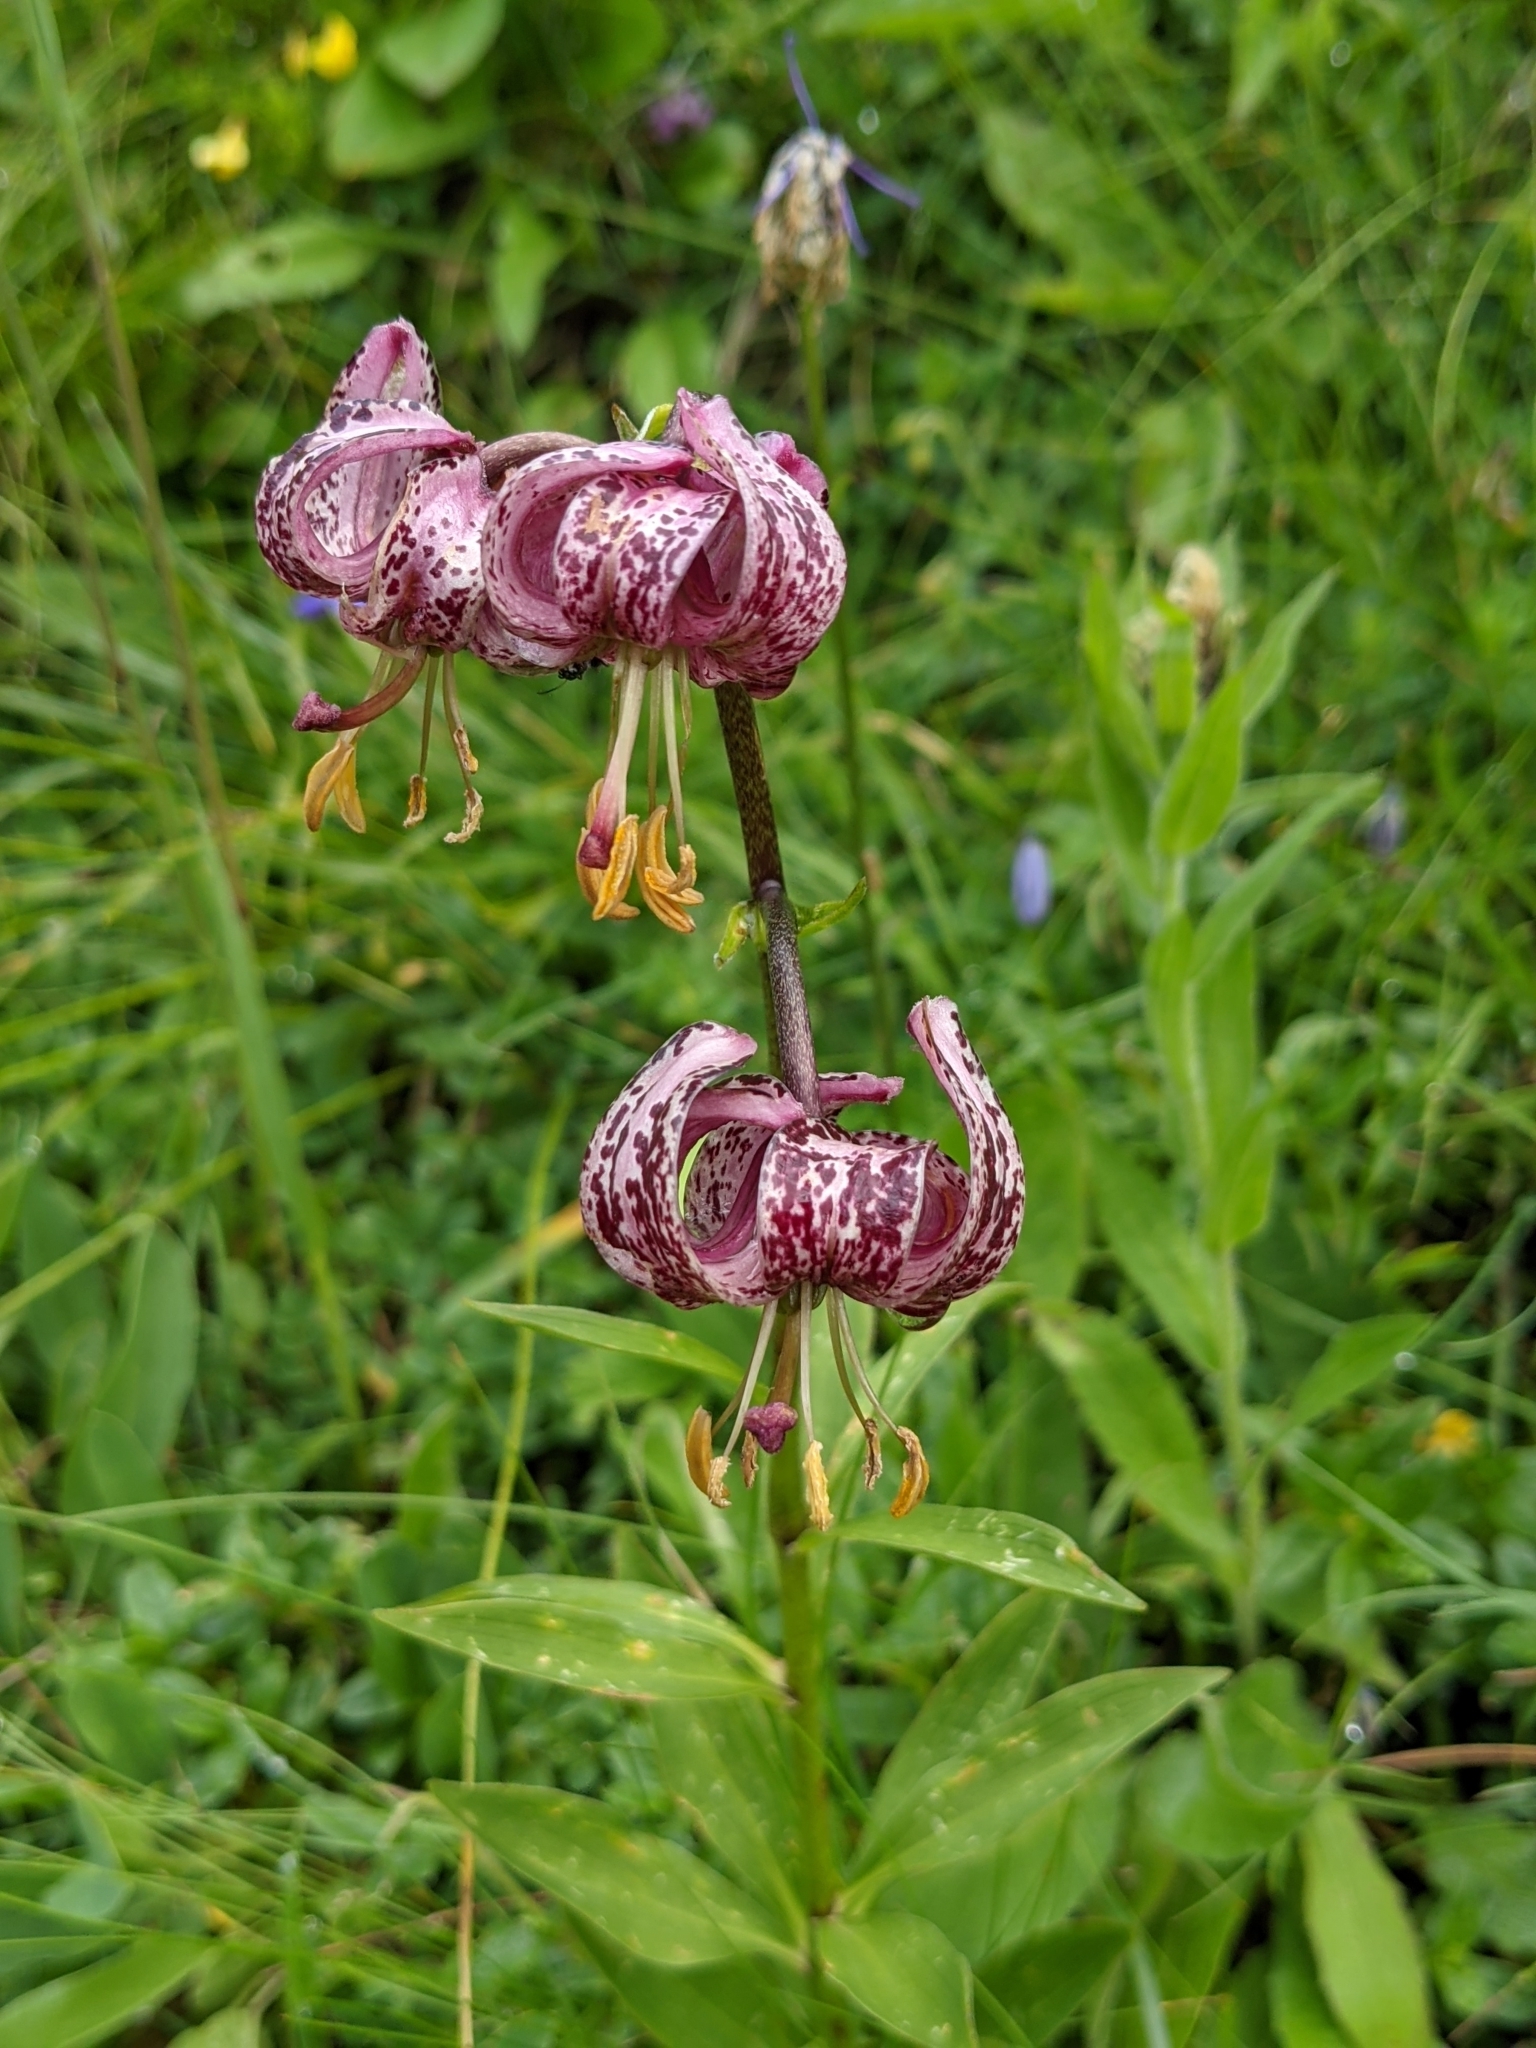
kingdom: Plantae
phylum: Tracheophyta
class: Liliopsida
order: Liliales
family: Liliaceae
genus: Lilium
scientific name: Lilium martagon
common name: Martagon lily
